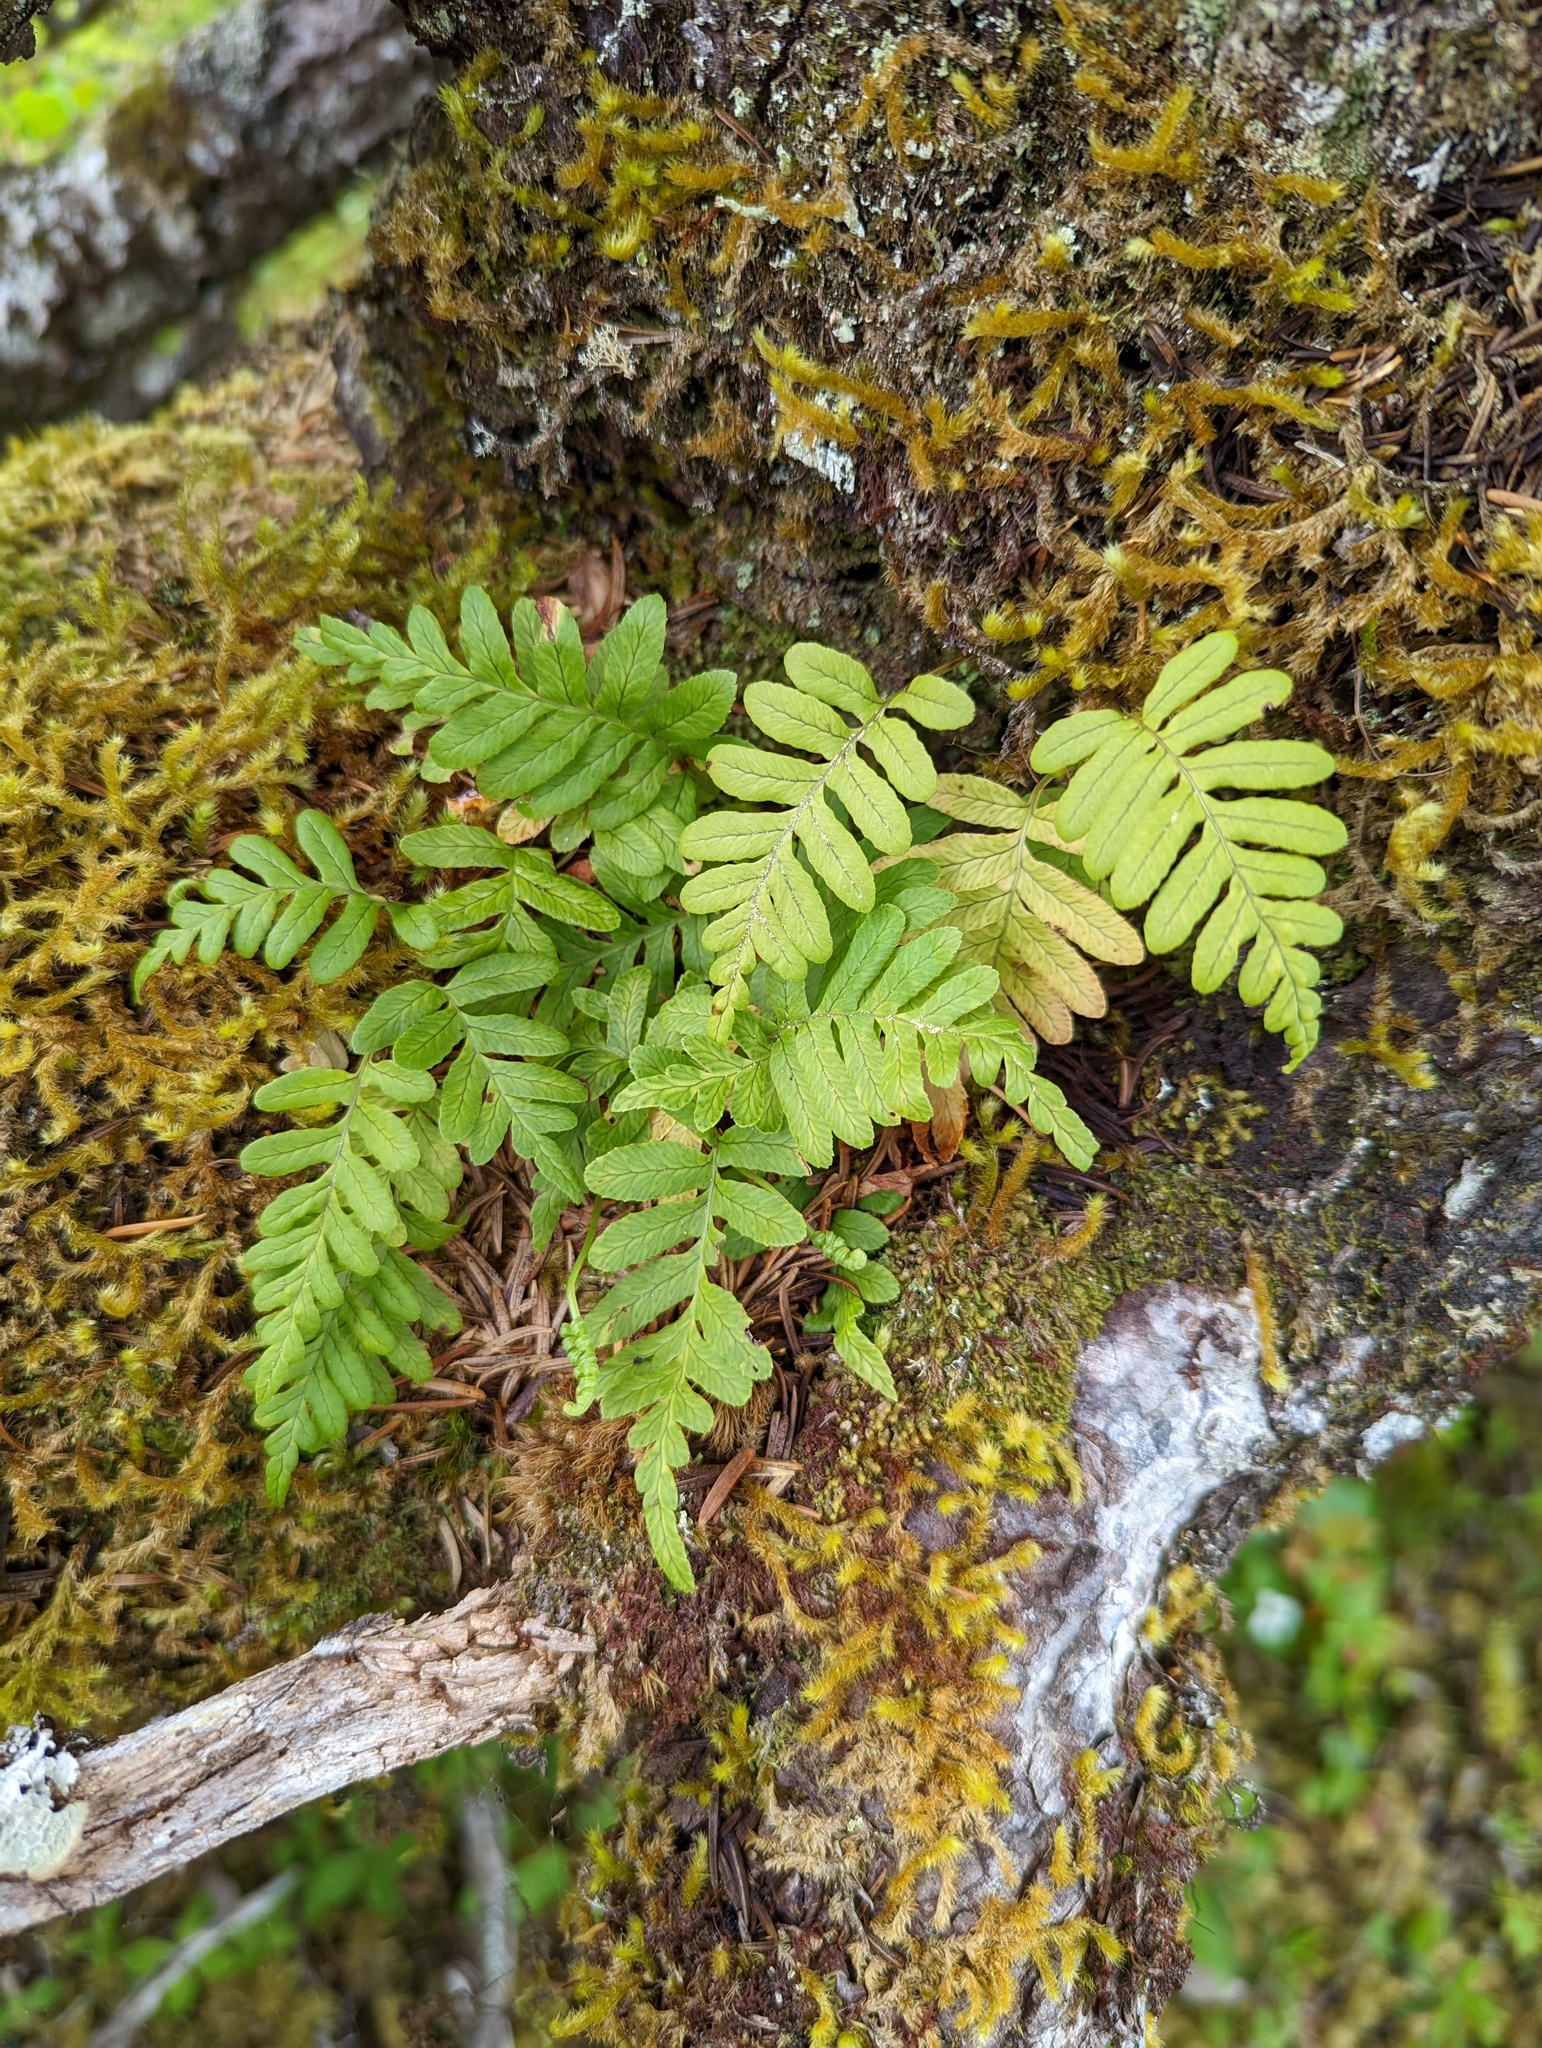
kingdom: Plantae
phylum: Tracheophyta
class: Polypodiopsida
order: Polypodiales
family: Polypodiaceae
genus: Polypodium
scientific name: Polypodium glycyrrhiza
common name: Licorice fern
